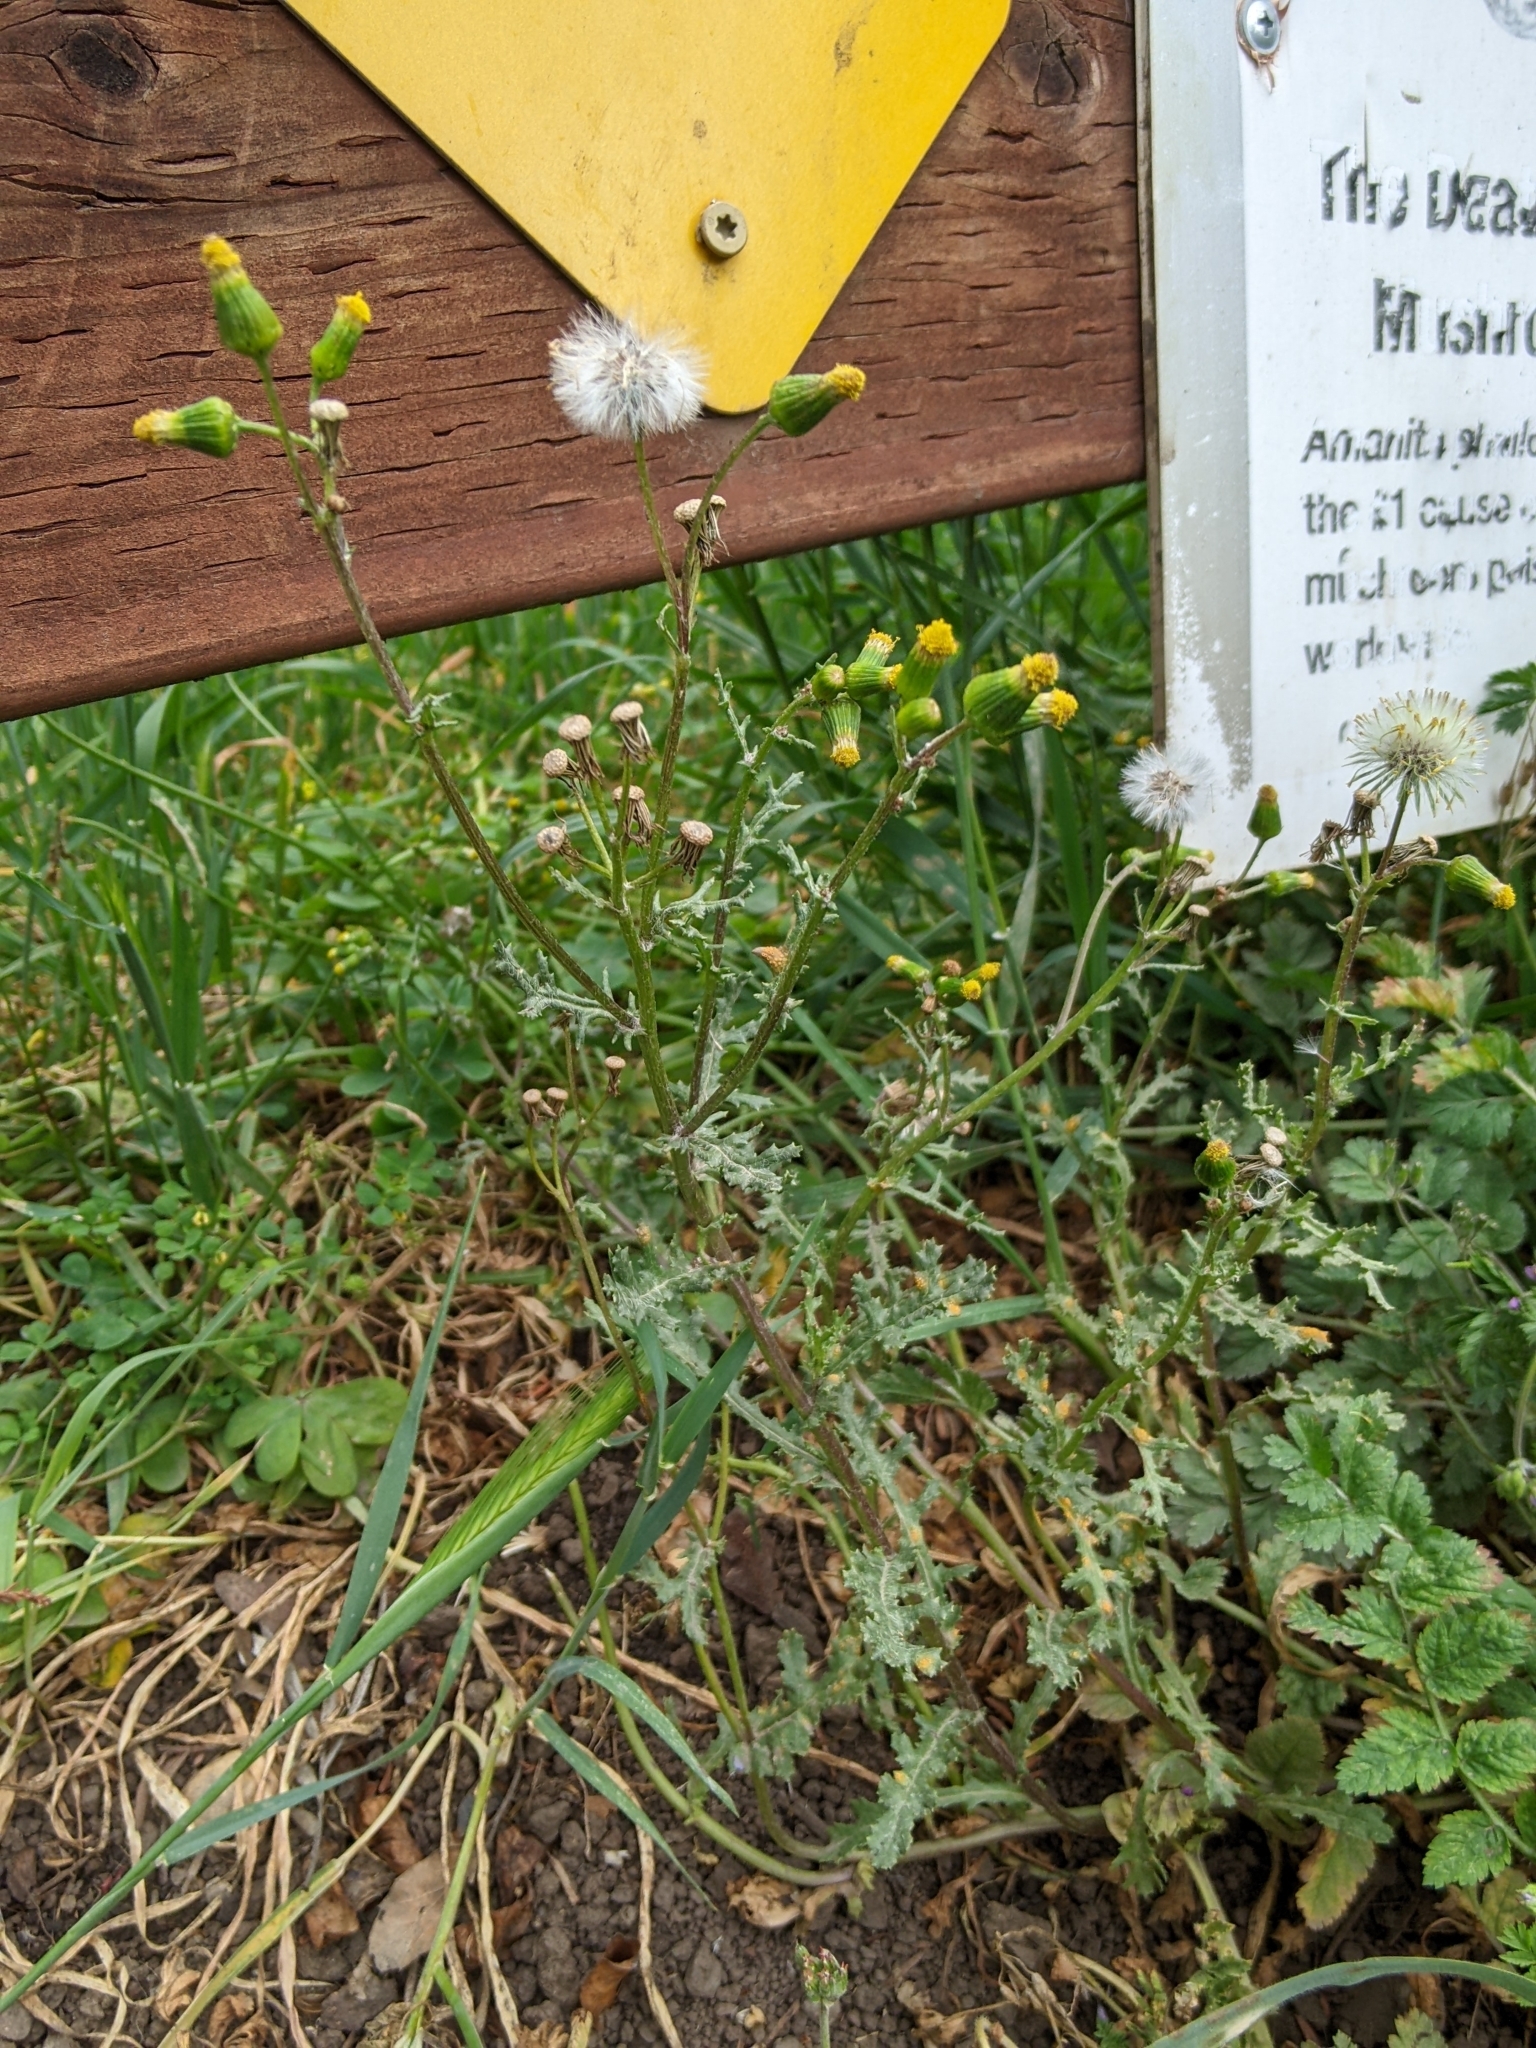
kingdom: Plantae
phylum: Tracheophyta
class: Magnoliopsida
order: Asterales
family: Asteraceae
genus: Senecio
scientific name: Senecio vulgaris
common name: Old-man-in-the-spring
